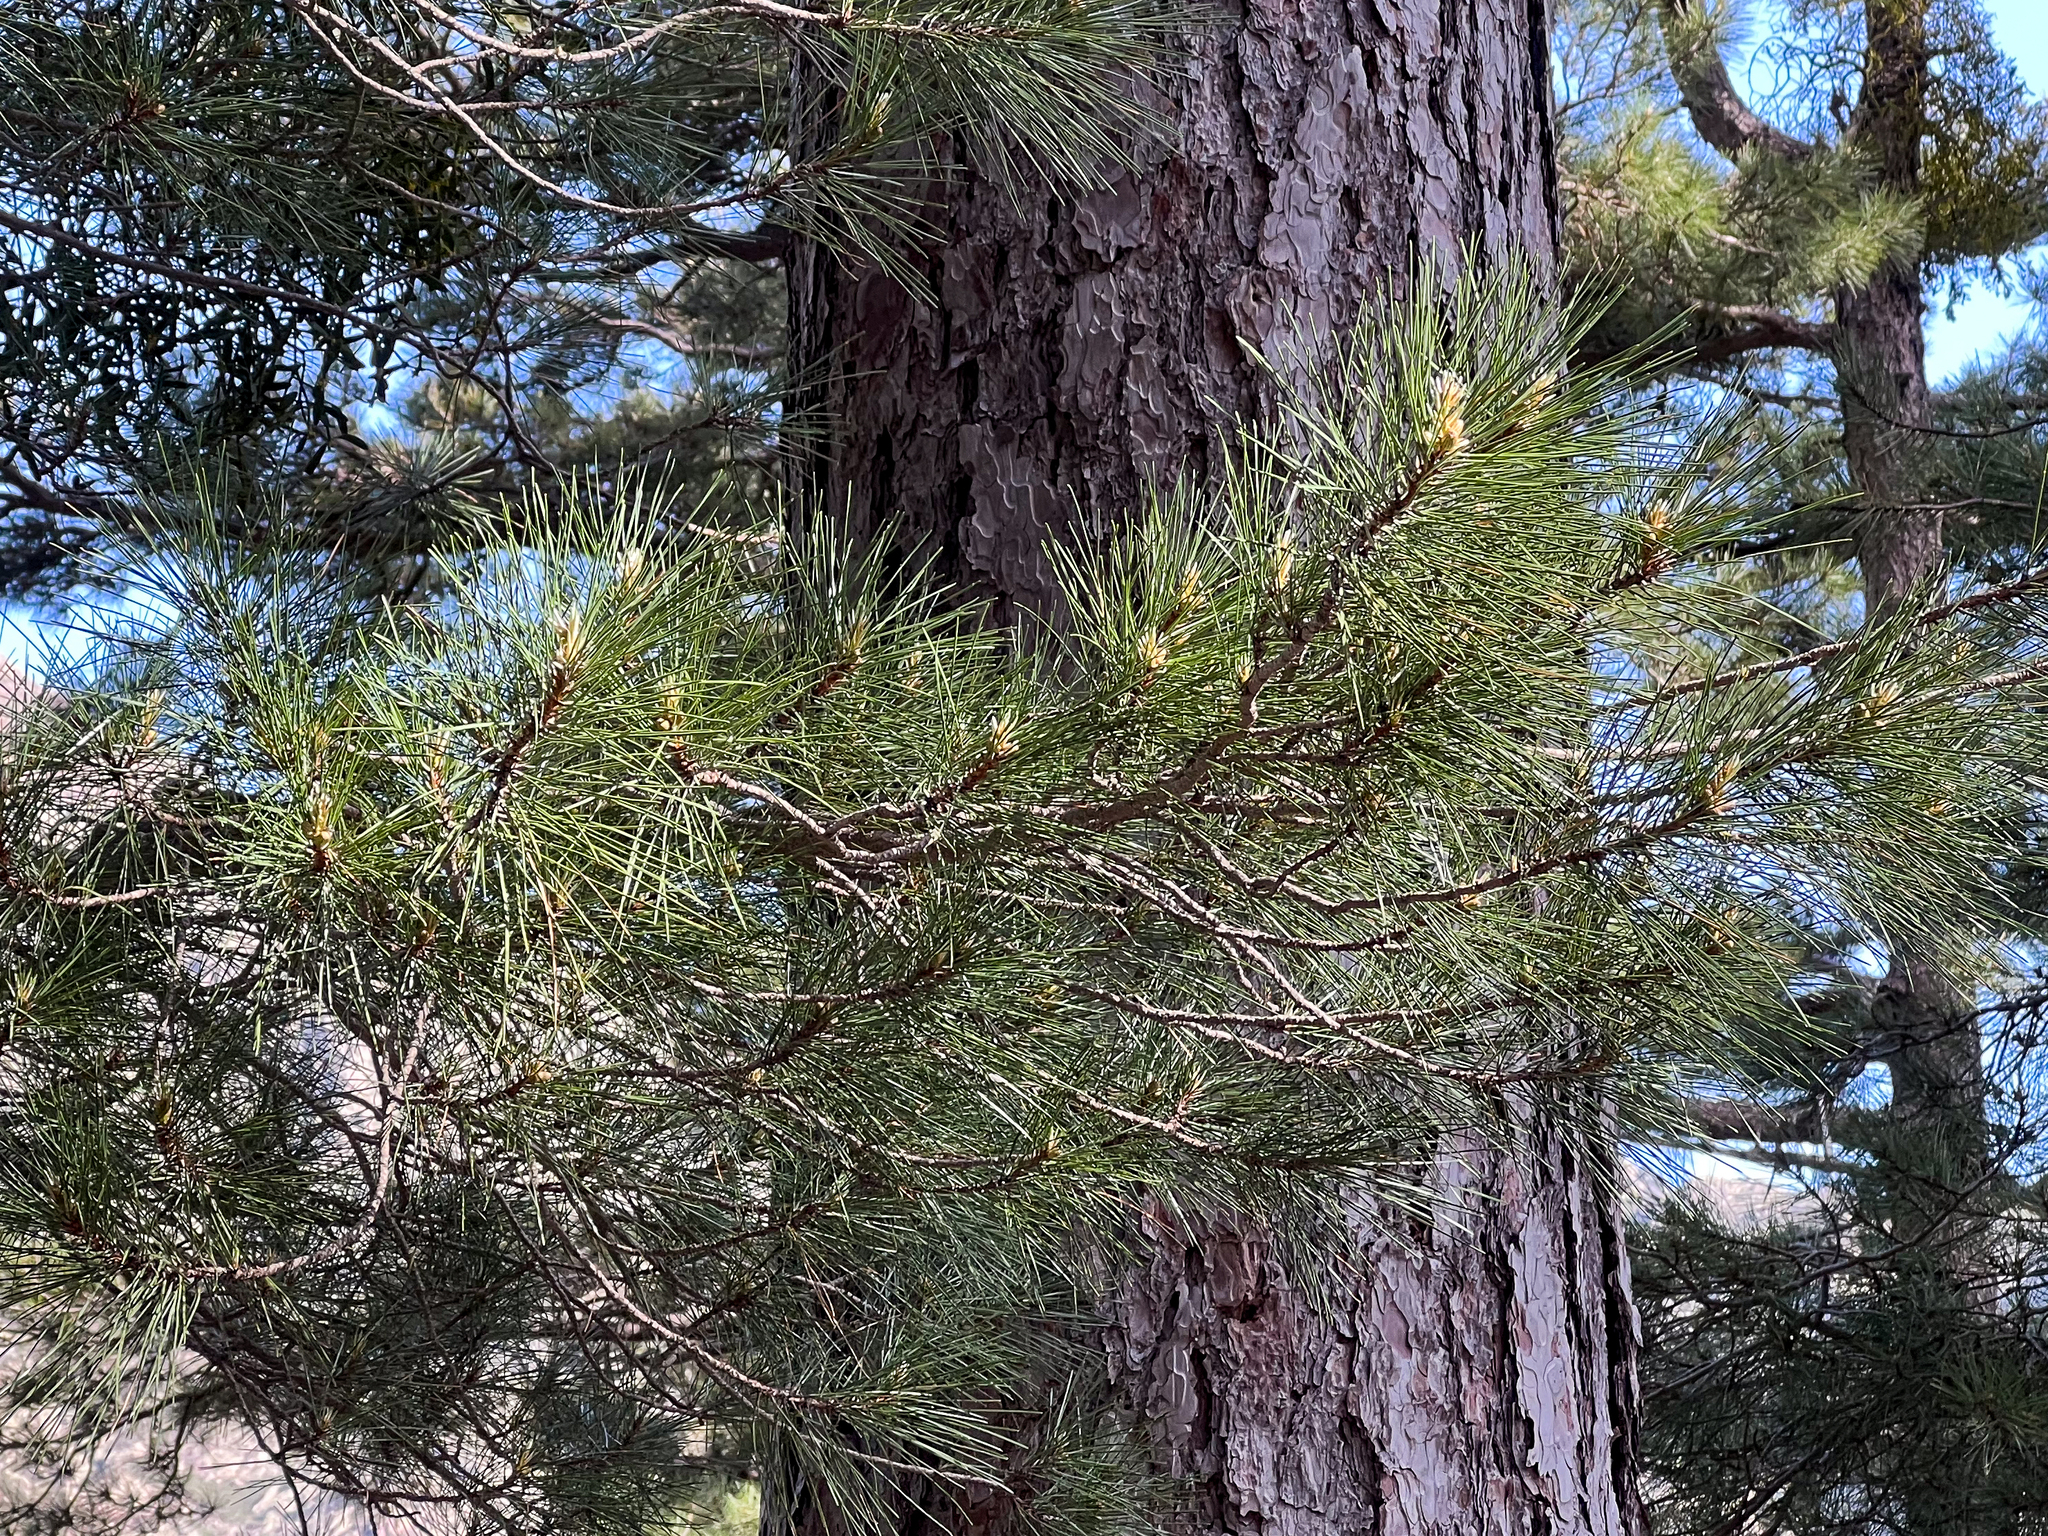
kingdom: Plantae
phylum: Tracheophyta
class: Pinopsida
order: Pinales
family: Pinaceae
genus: Pinus
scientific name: Pinus nigra
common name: Austrian pine
